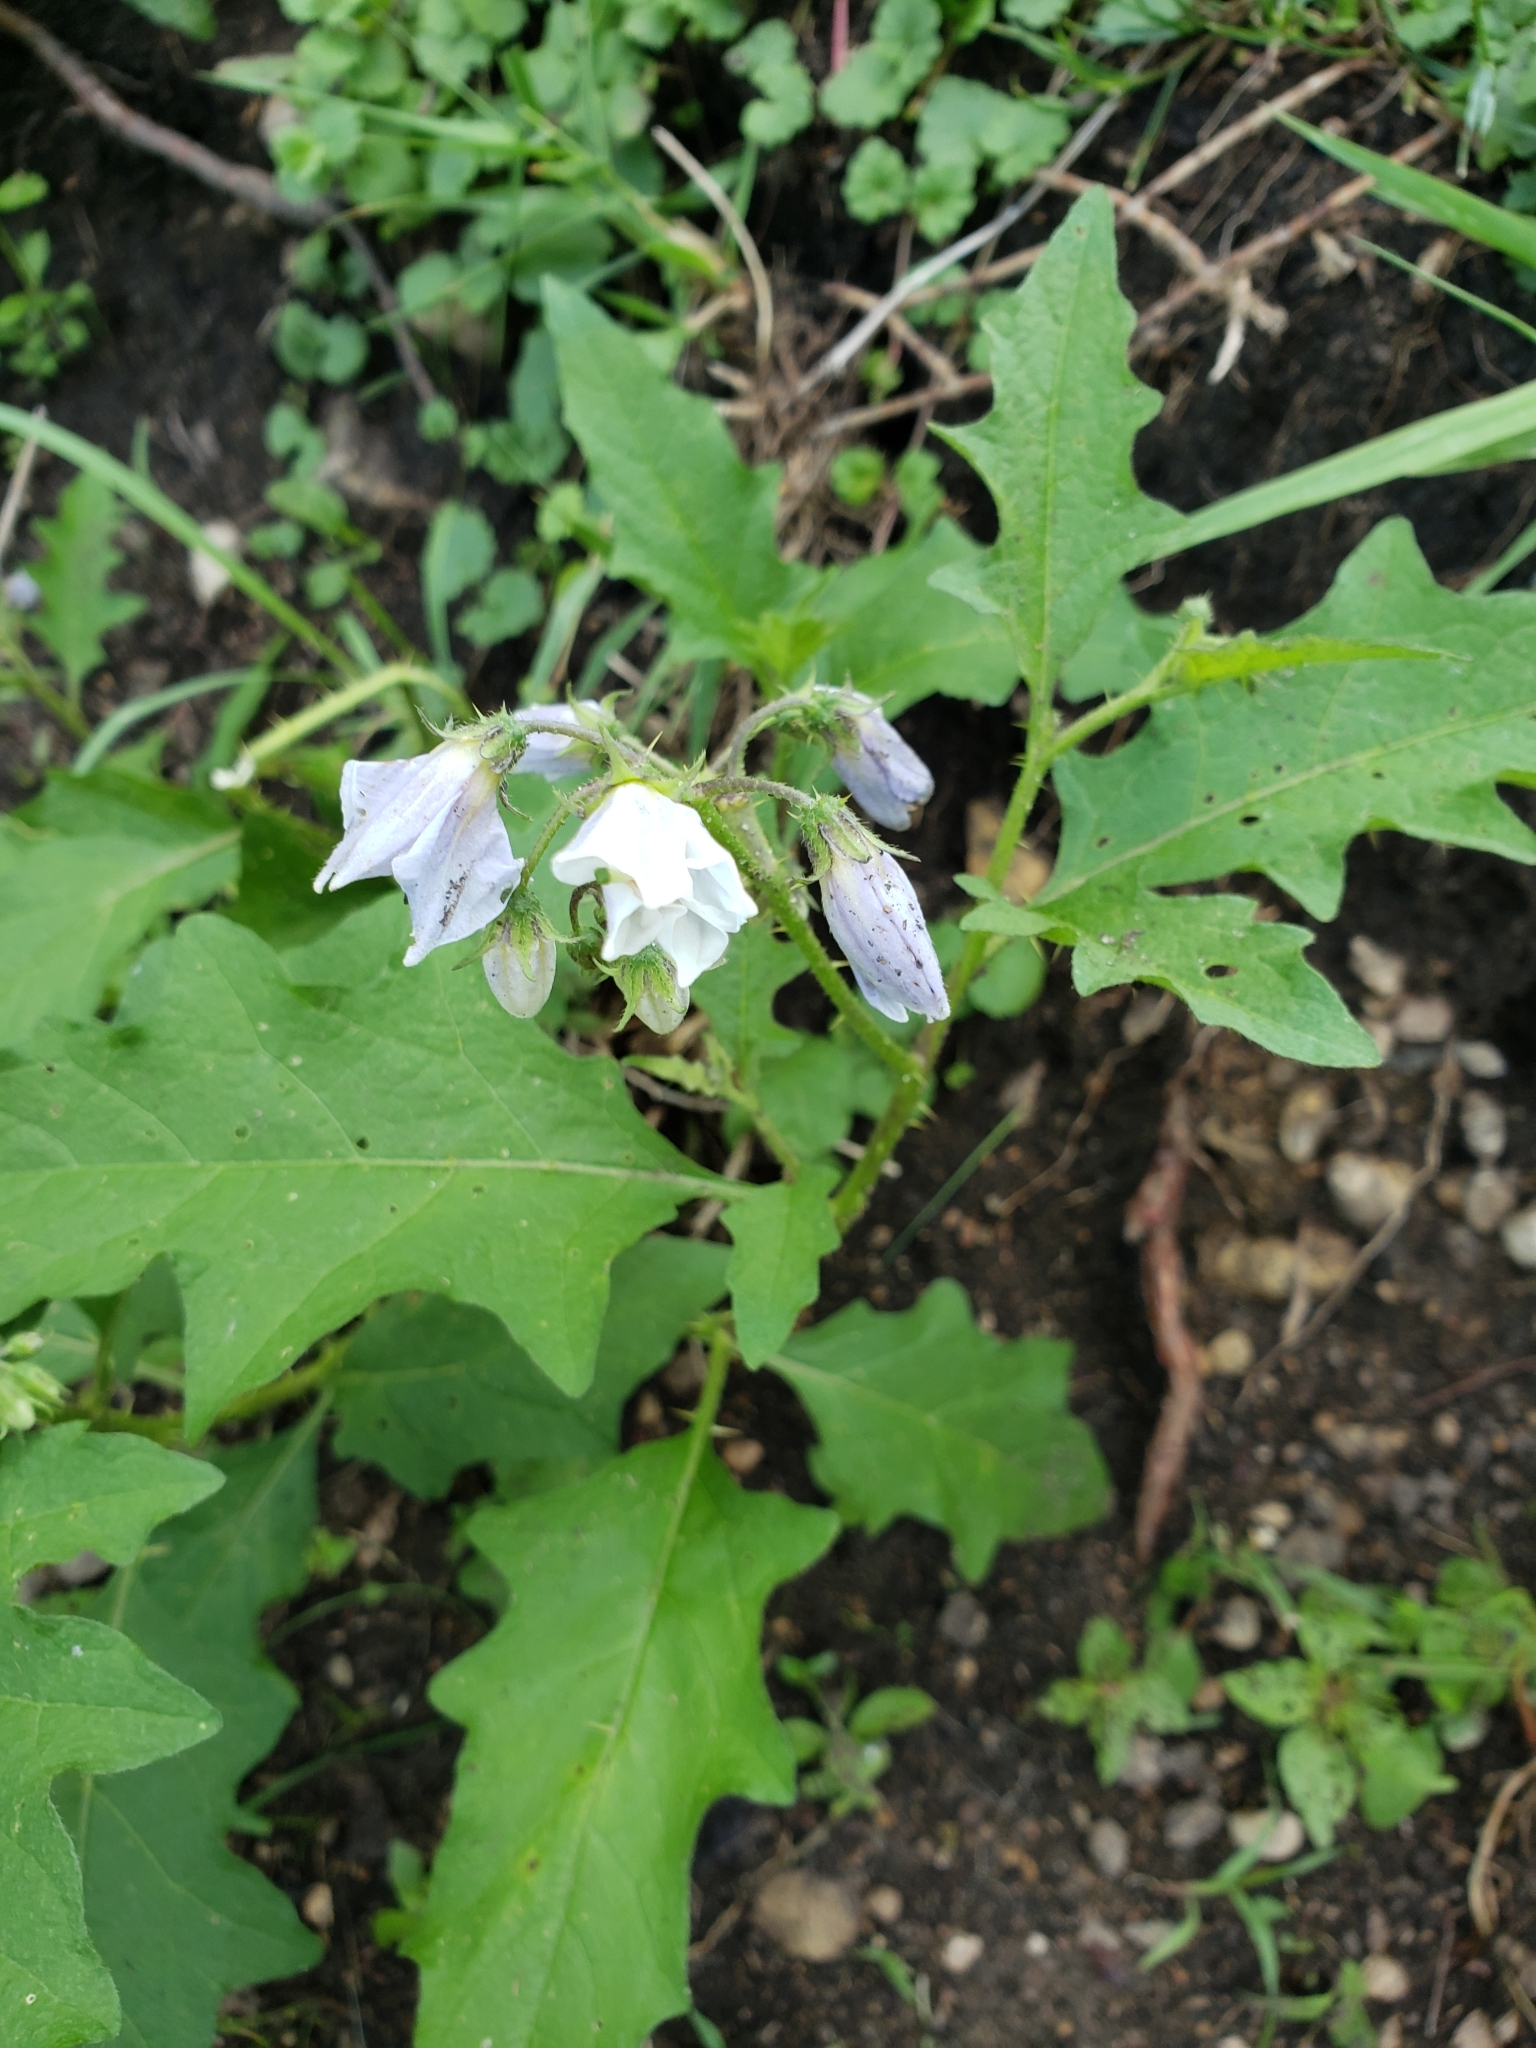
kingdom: Plantae
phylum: Tracheophyta
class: Magnoliopsida
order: Solanales
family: Solanaceae
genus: Solanum
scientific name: Solanum carolinense
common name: Horse-nettle
